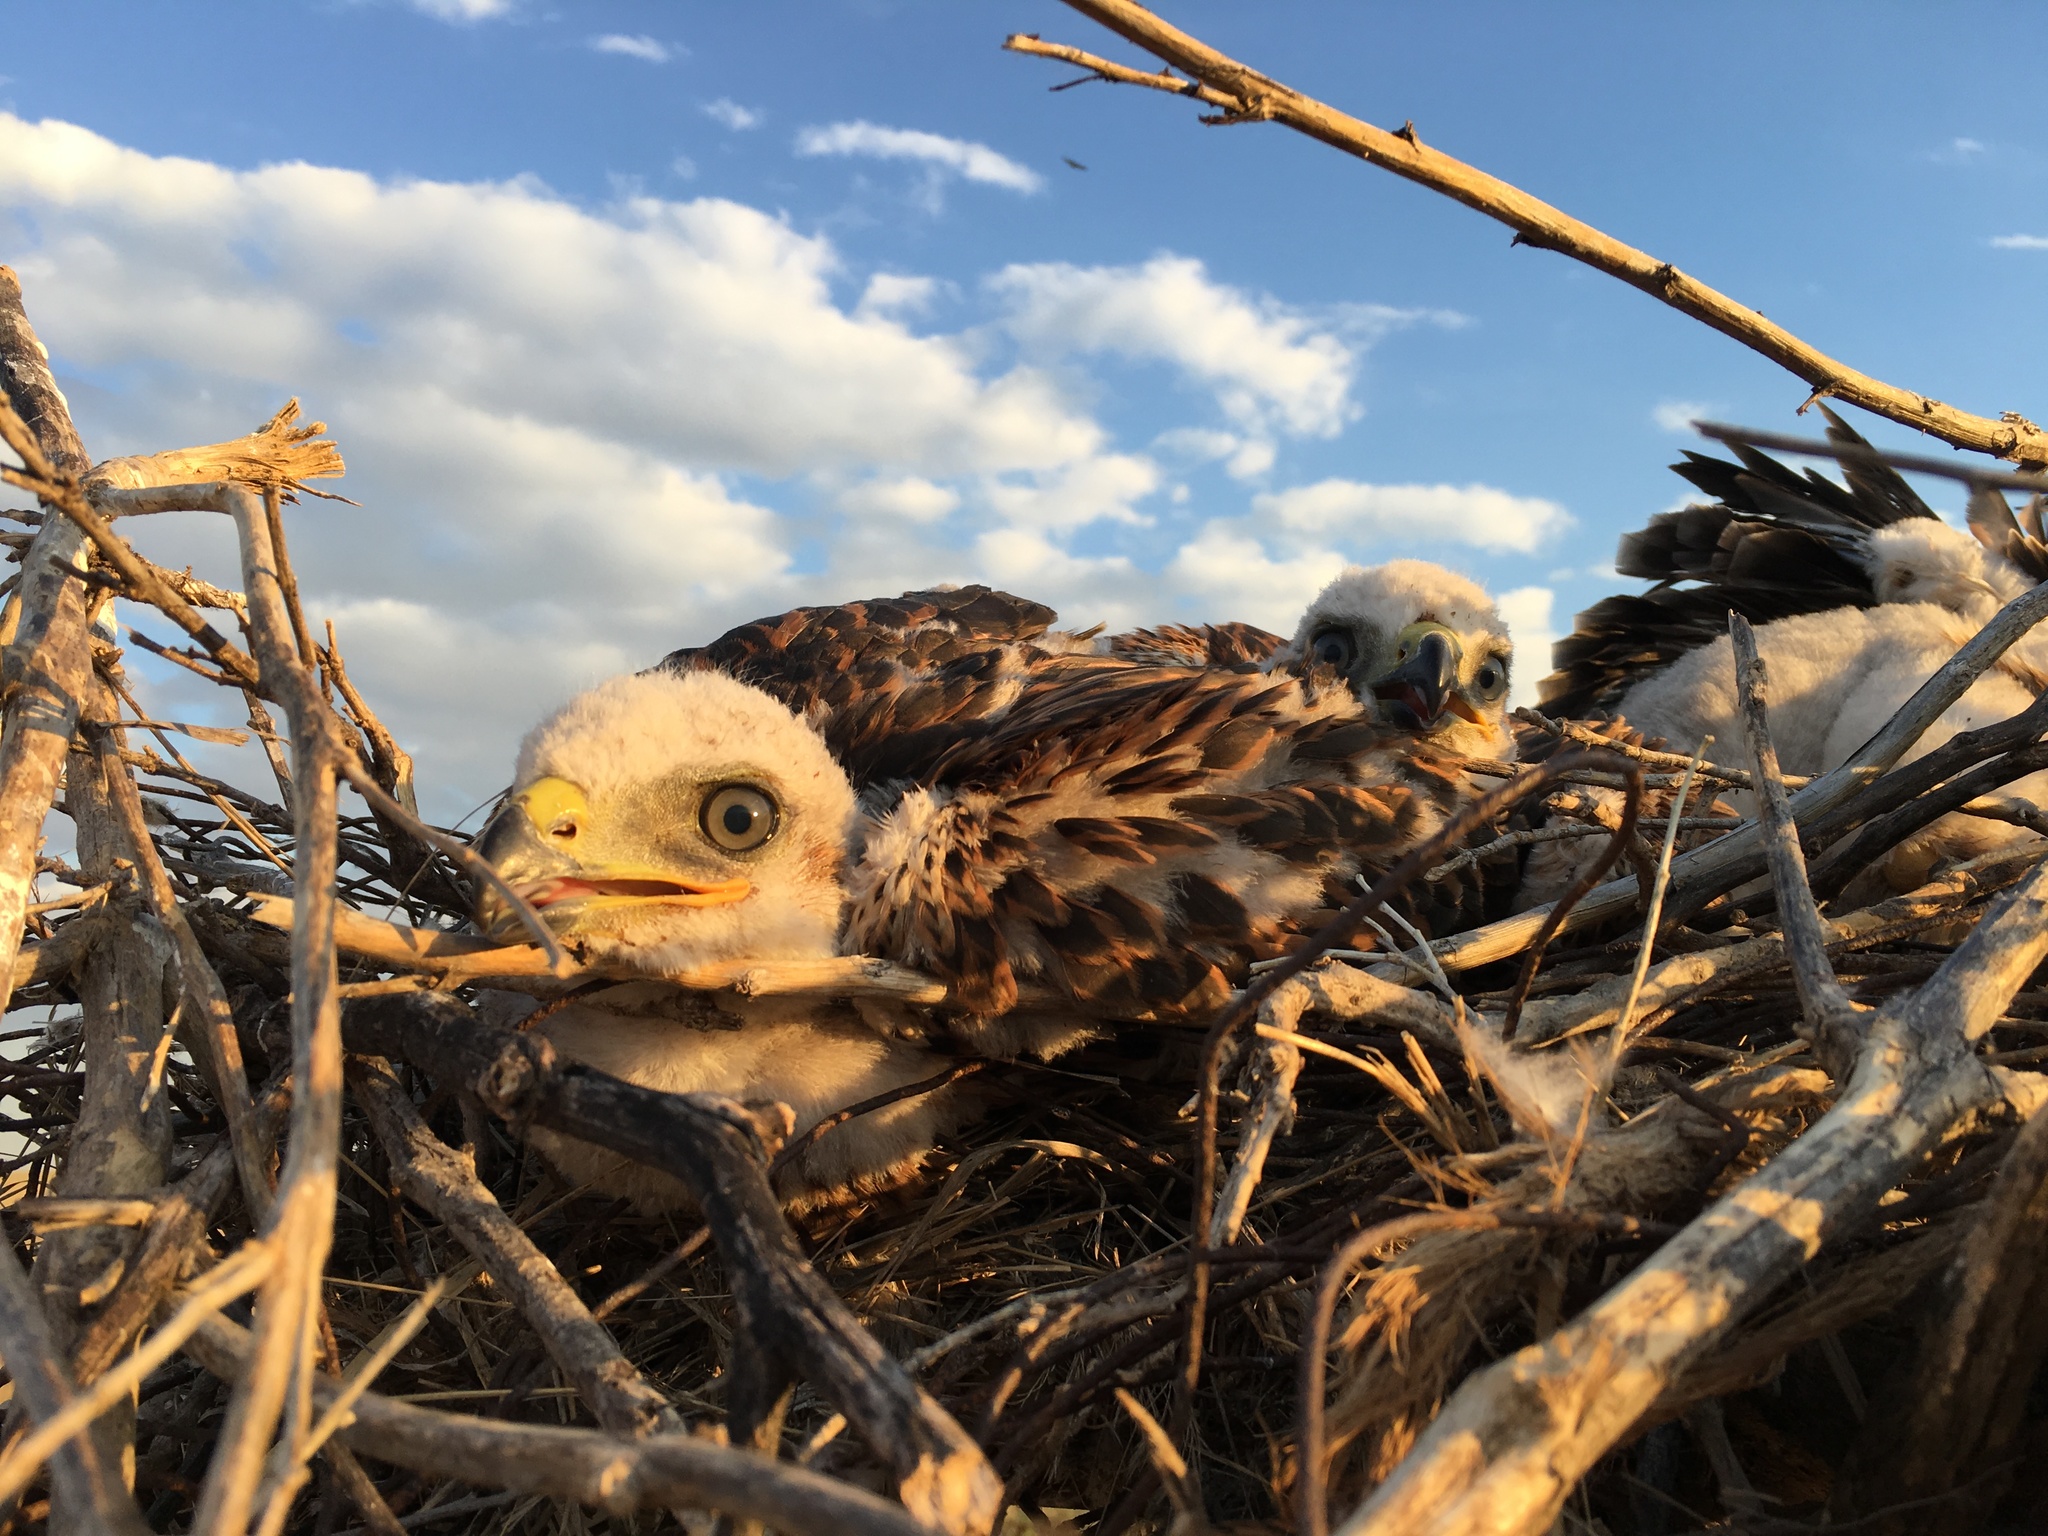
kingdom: Animalia
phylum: Chordata
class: Aves
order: Accipitriformes
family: Accipitridae
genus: Buteo
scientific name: Buteo rufinus
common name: Long-legged buzzard
